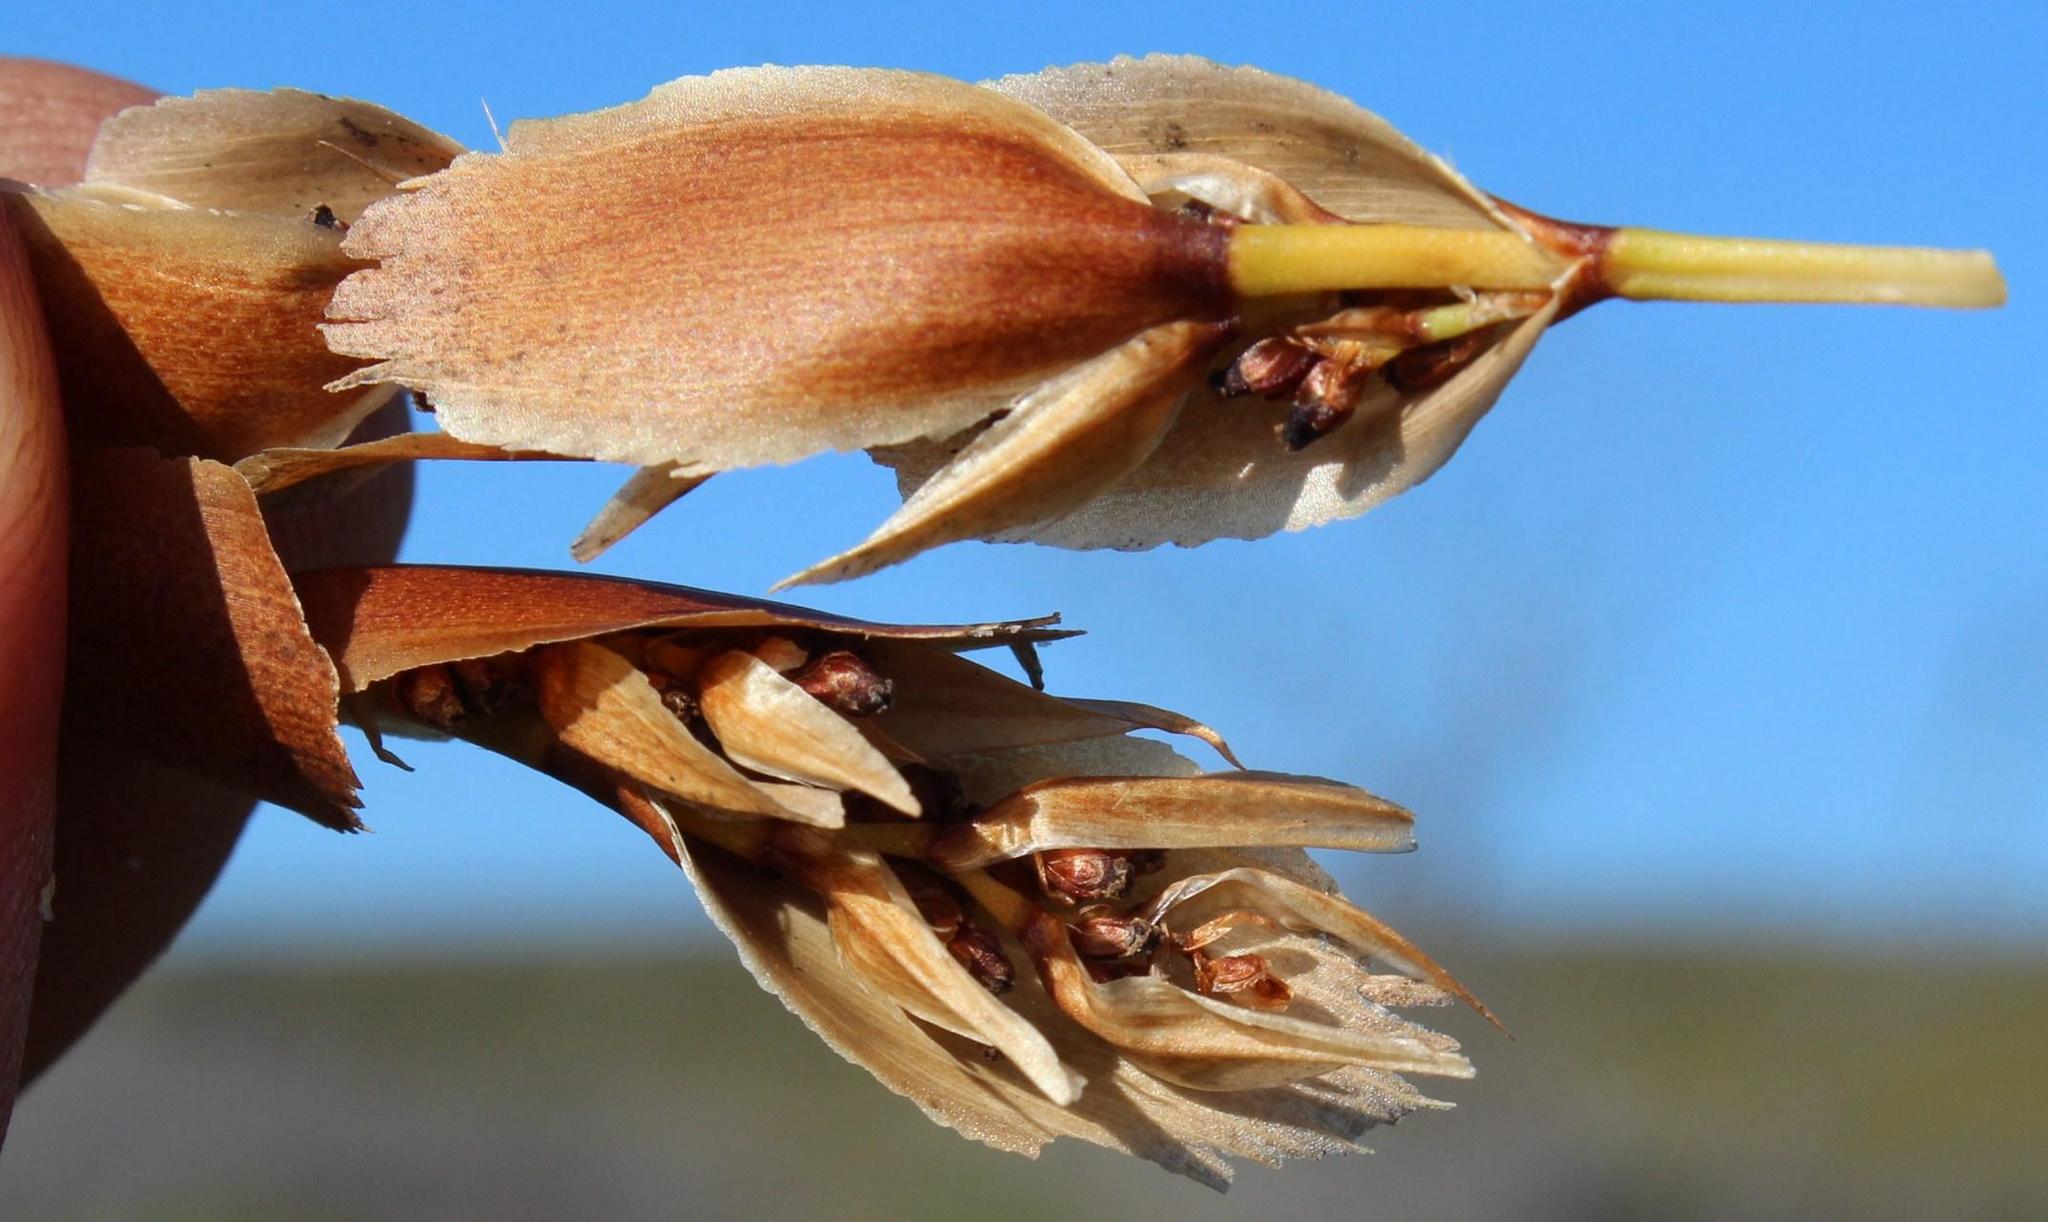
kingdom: Plantae
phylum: Tracheophyta
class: Liliopsida
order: Poales
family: Restionaceae
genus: Elegia
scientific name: Elegia equisetacea
